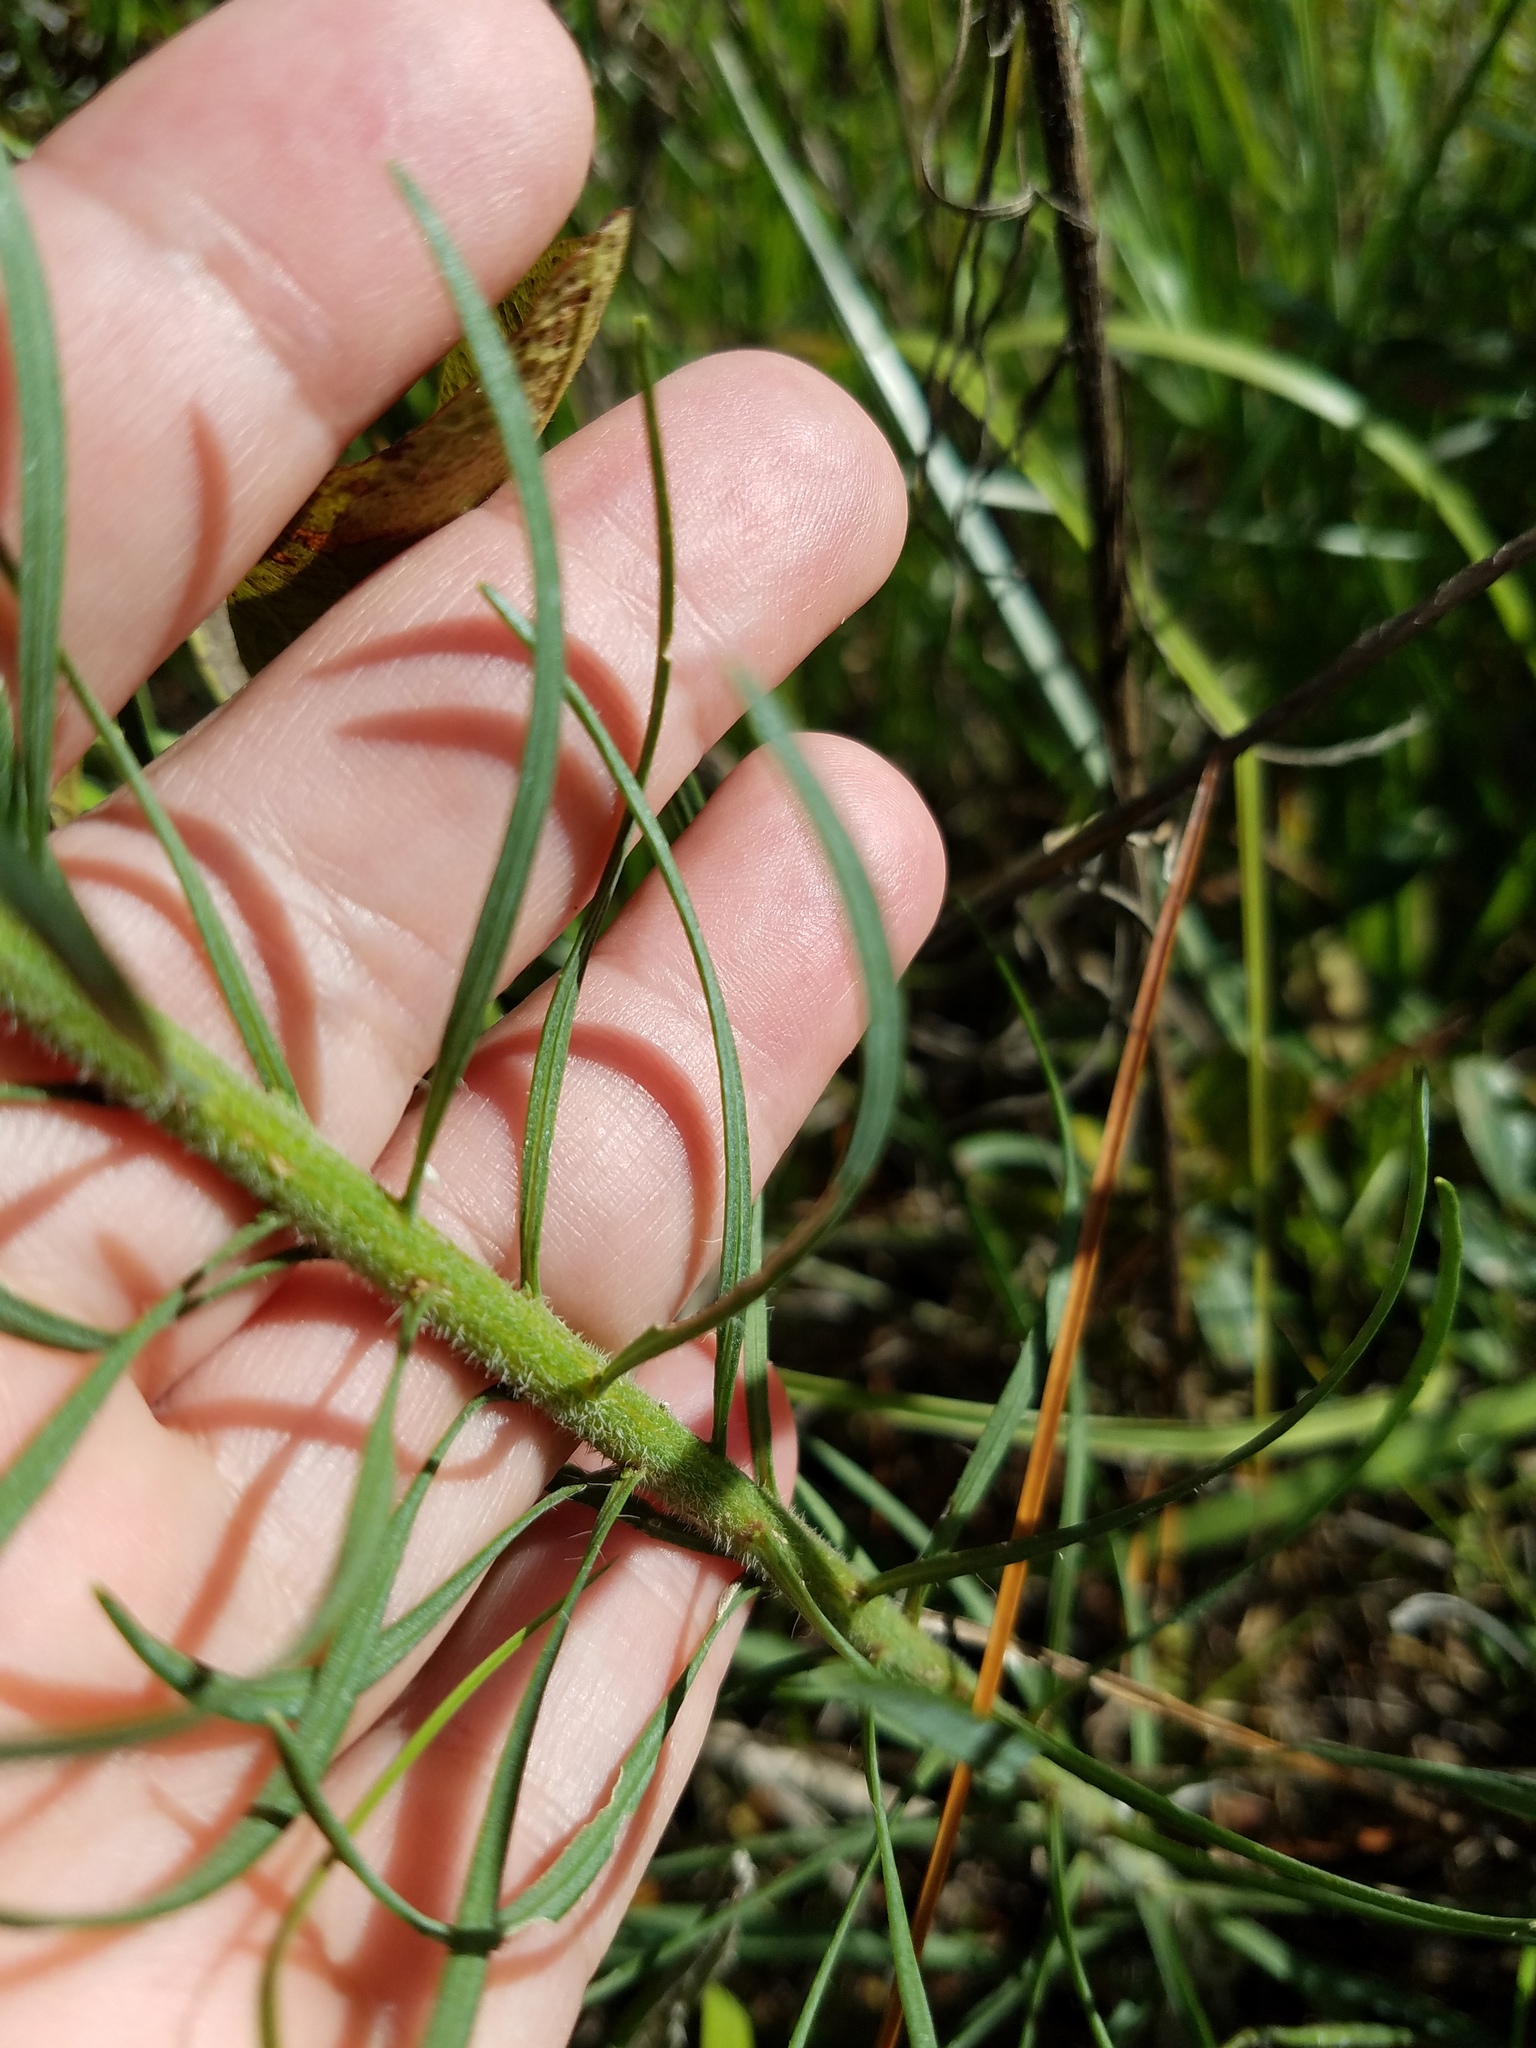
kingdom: Plantae
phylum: Tracheophyta
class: Magnoliopsida
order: Asterales
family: Asteraceae
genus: Liatris
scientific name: Liatris gracilis
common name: Slender gayfeather
